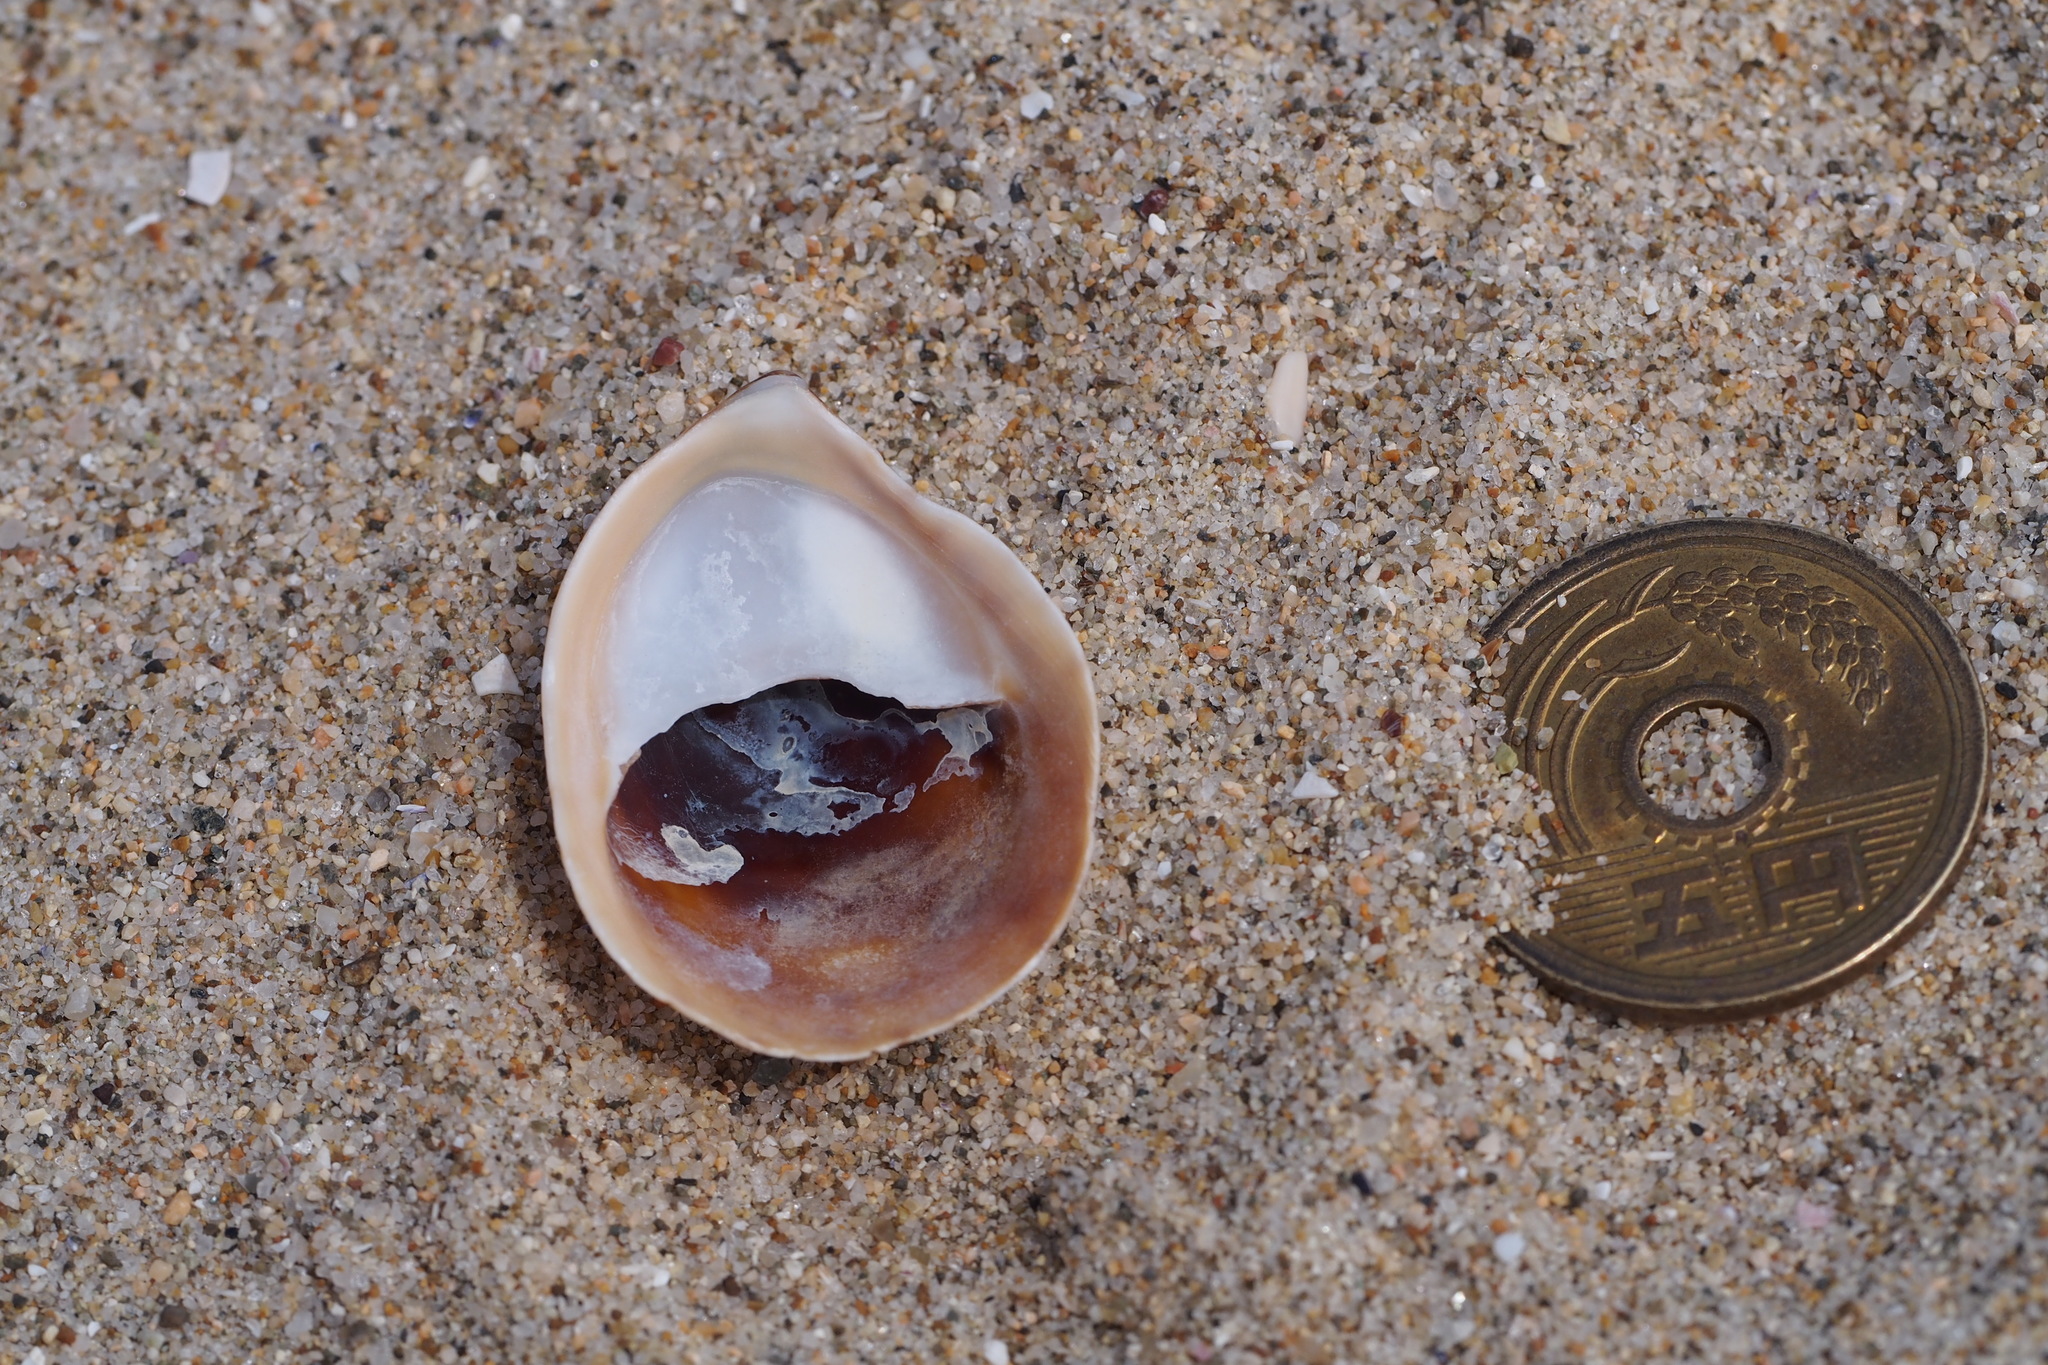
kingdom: Animalia
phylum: Mollusca
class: Gastropoda
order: Littorinimorpha
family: Calyptraeidae
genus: Crepidula
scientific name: Crepidula onyx
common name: Onyx slippersnail
